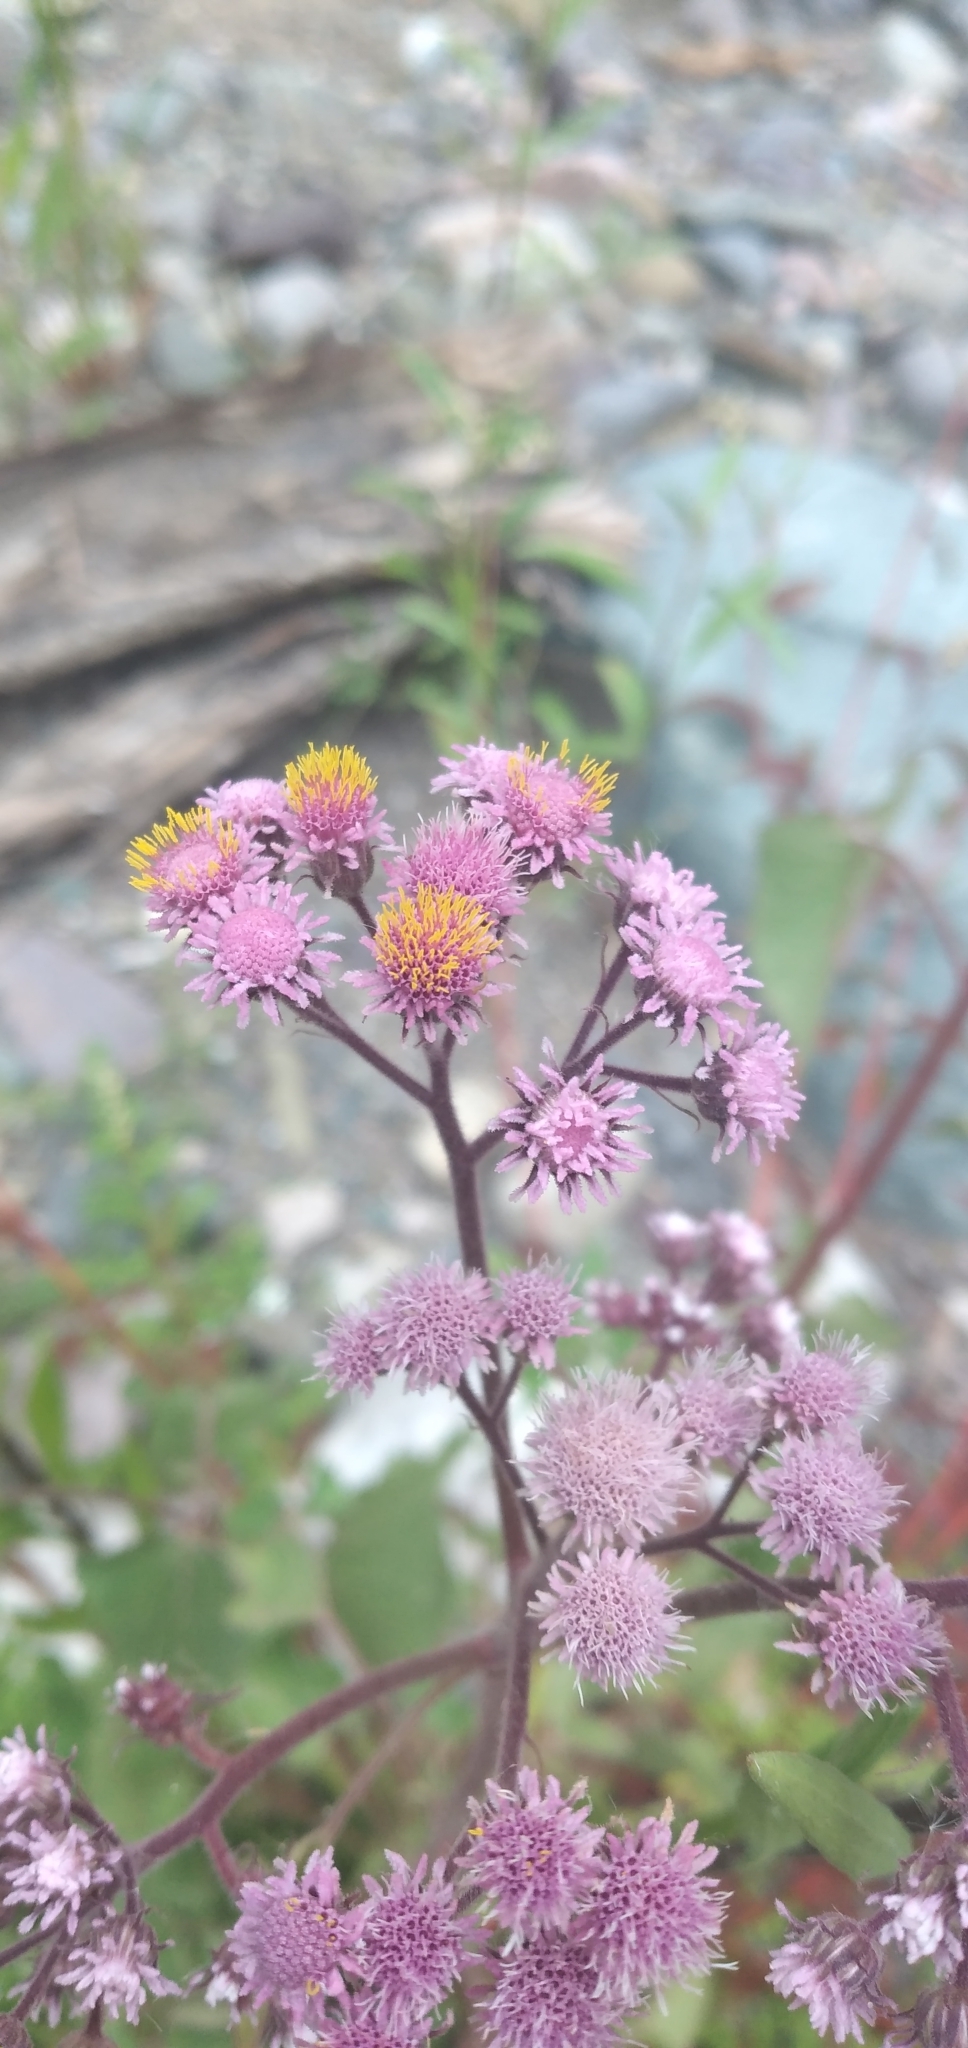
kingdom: Plantae
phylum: Tracheophyta
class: Magnoliopsida
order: Asterales
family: Asteraceae
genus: Urolepis
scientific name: Urolepis hecatantha
